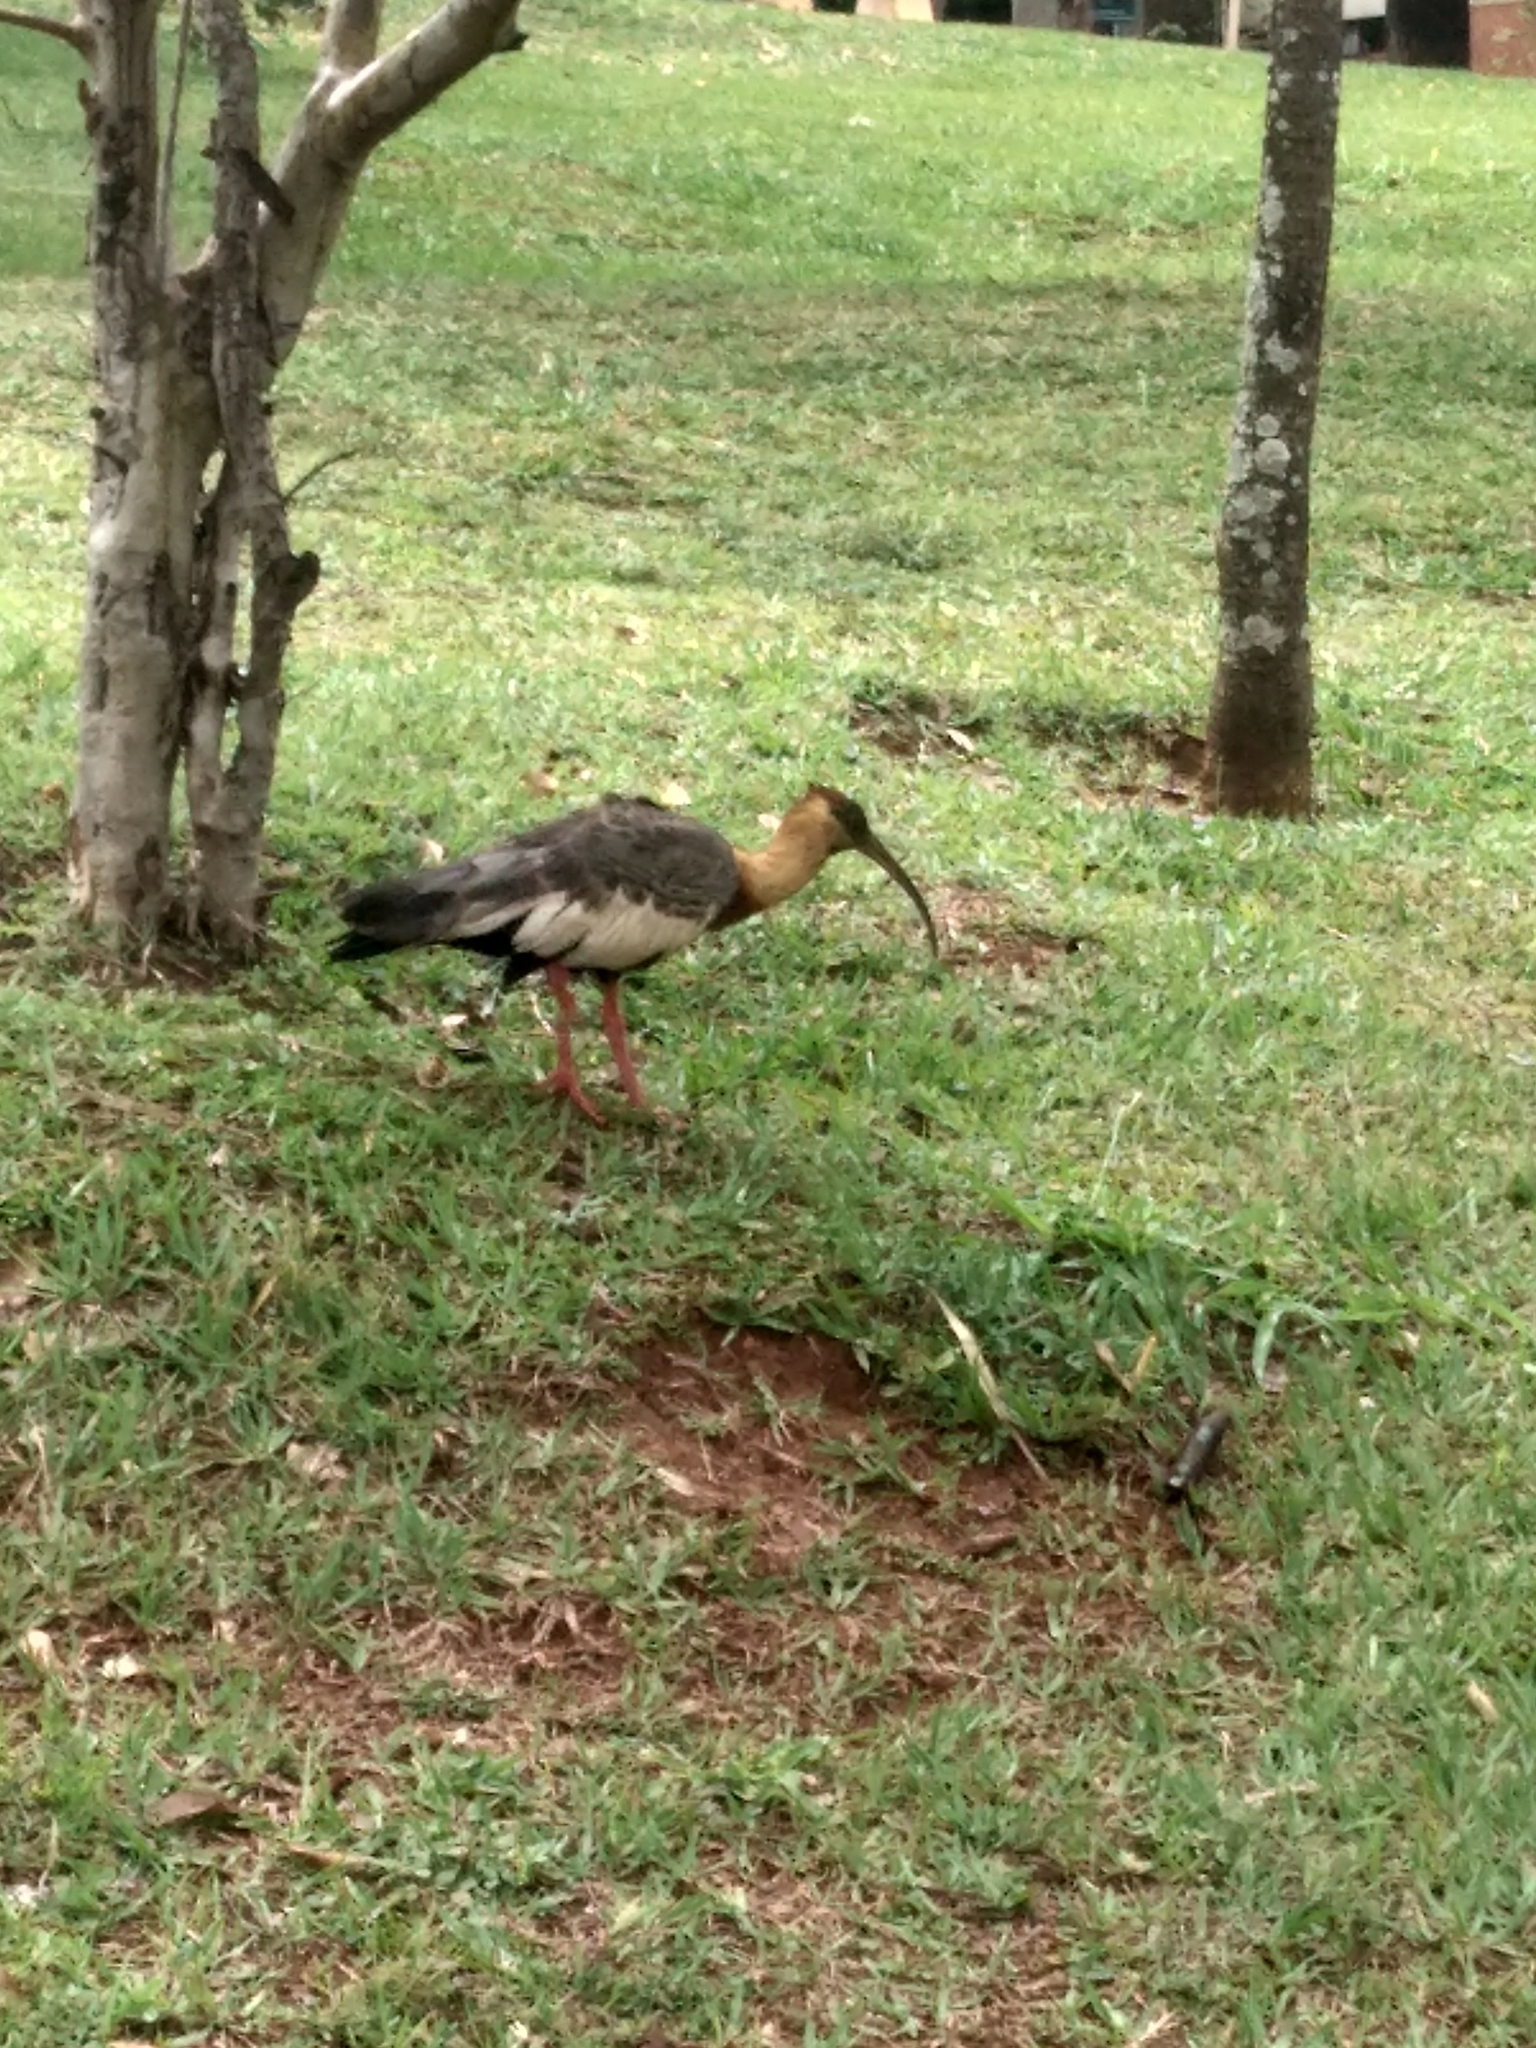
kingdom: Animalia
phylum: Chordata
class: Aves
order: Pelecaniformes
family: Threskiornithidae
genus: Theristicus
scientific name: Theristicus caudatus
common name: Buff-necked ibis
